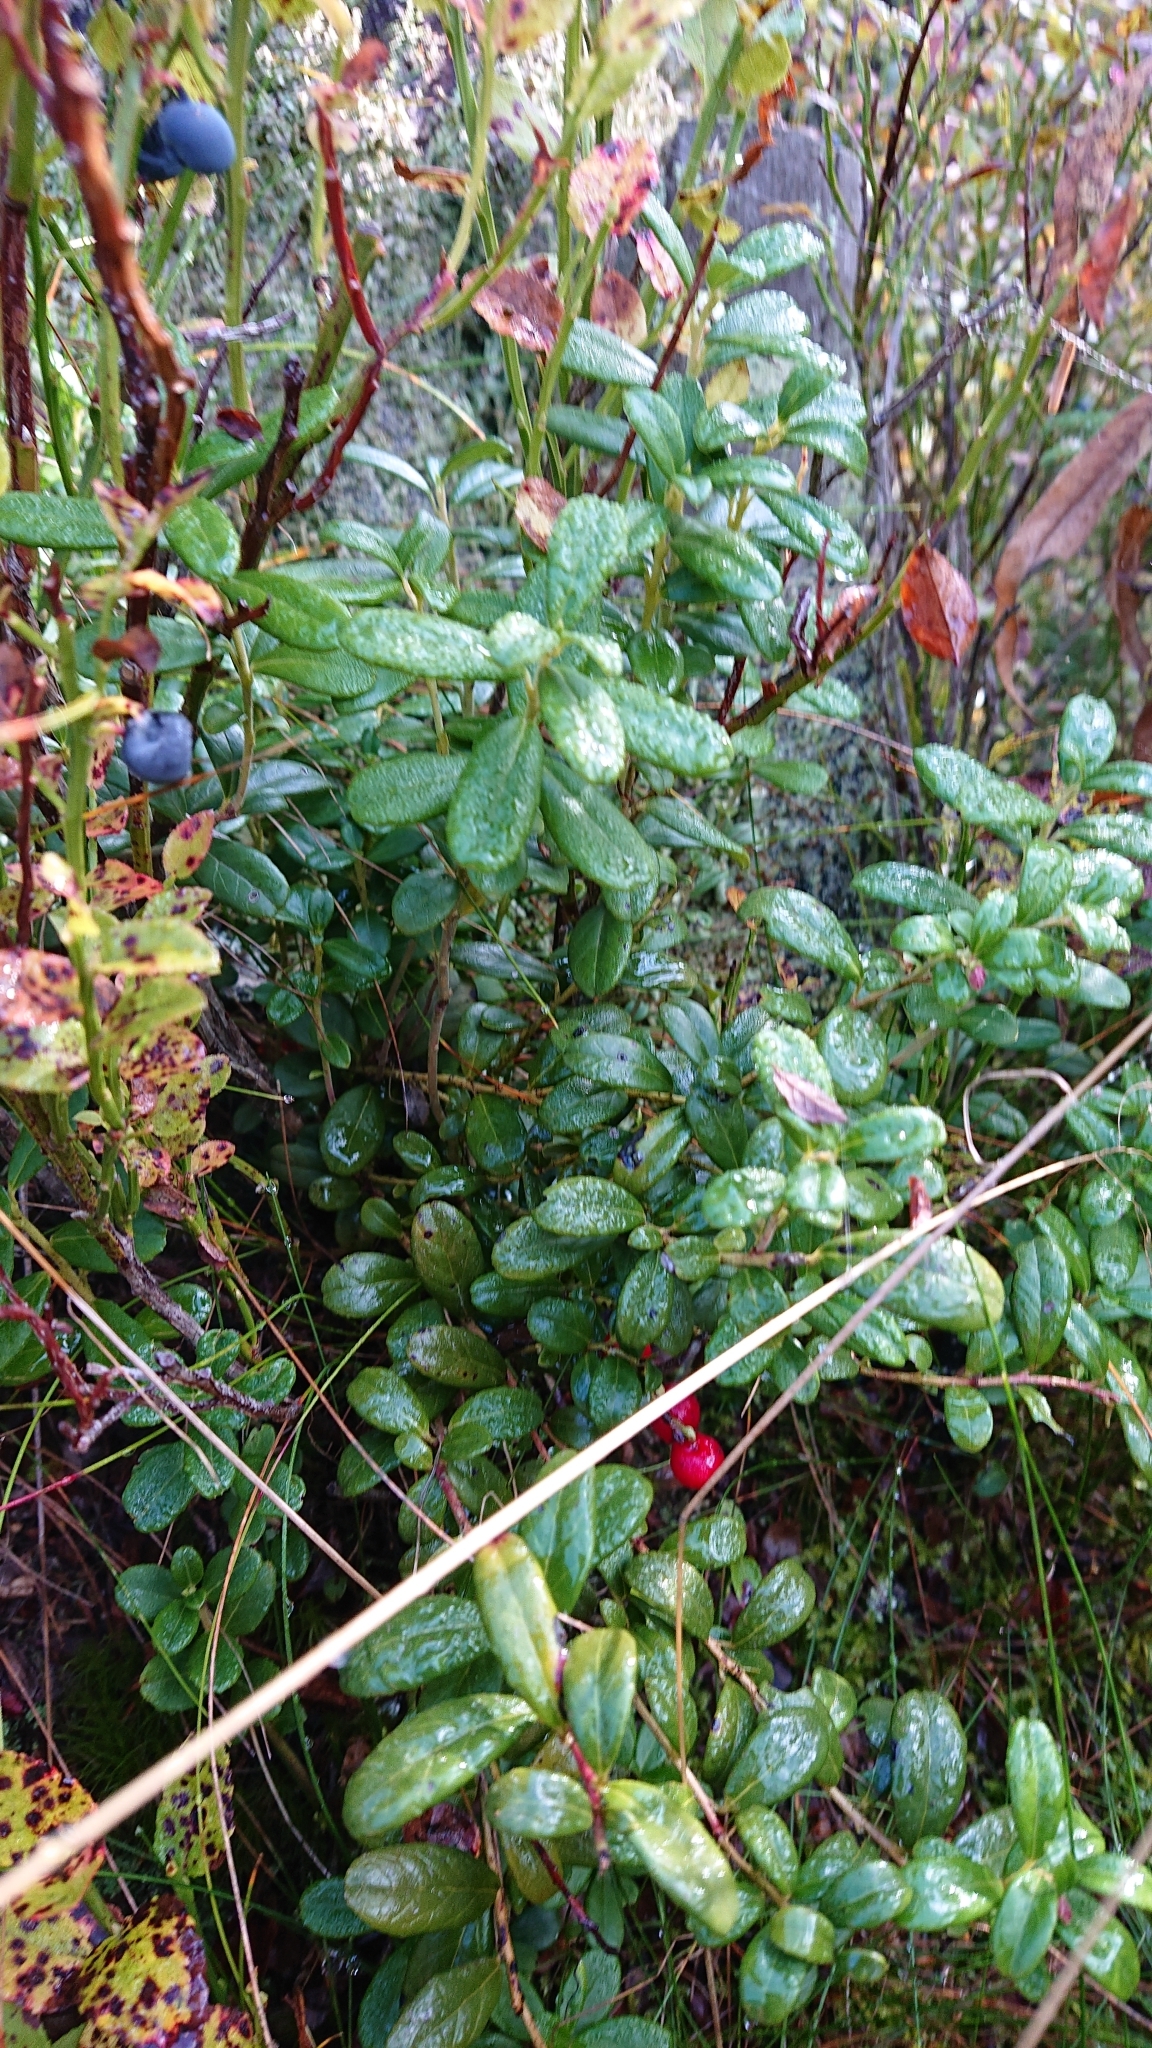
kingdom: Plantae
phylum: Tracheophyta
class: Magnoliopsida
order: Ericales
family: Ericaceae
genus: Vaccinium
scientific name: Vaccinium vitis-idaea
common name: Cowberry
